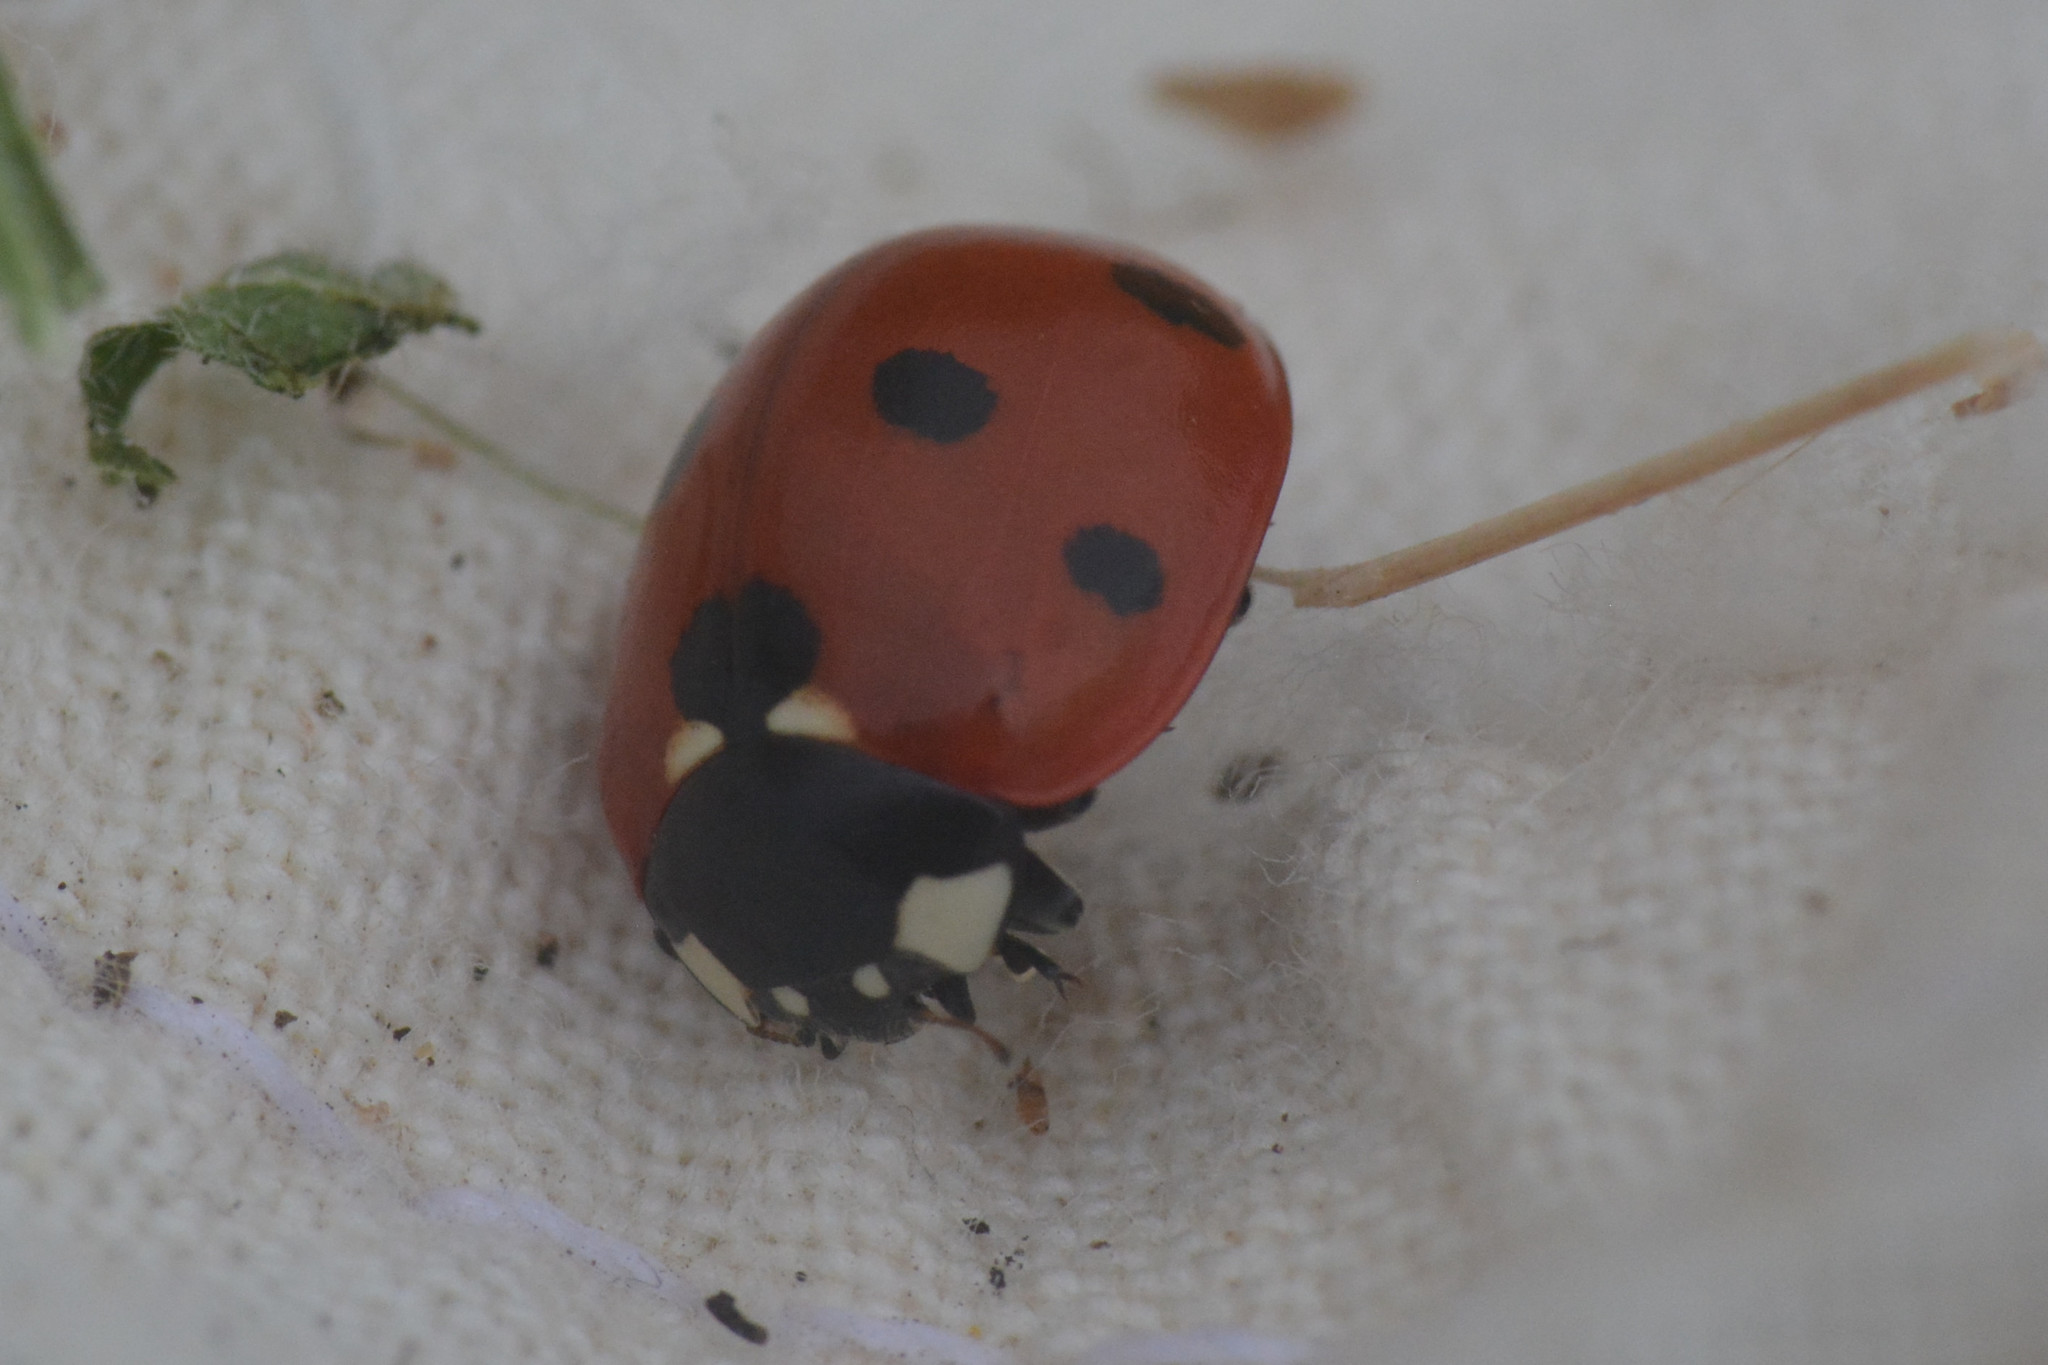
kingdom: Animalia
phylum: Arthropoda
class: Insecta
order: Coleoptera
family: Coccinellidae
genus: Coccinella
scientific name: Coccinella septempunctata
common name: Sevenspotted lady beetle
